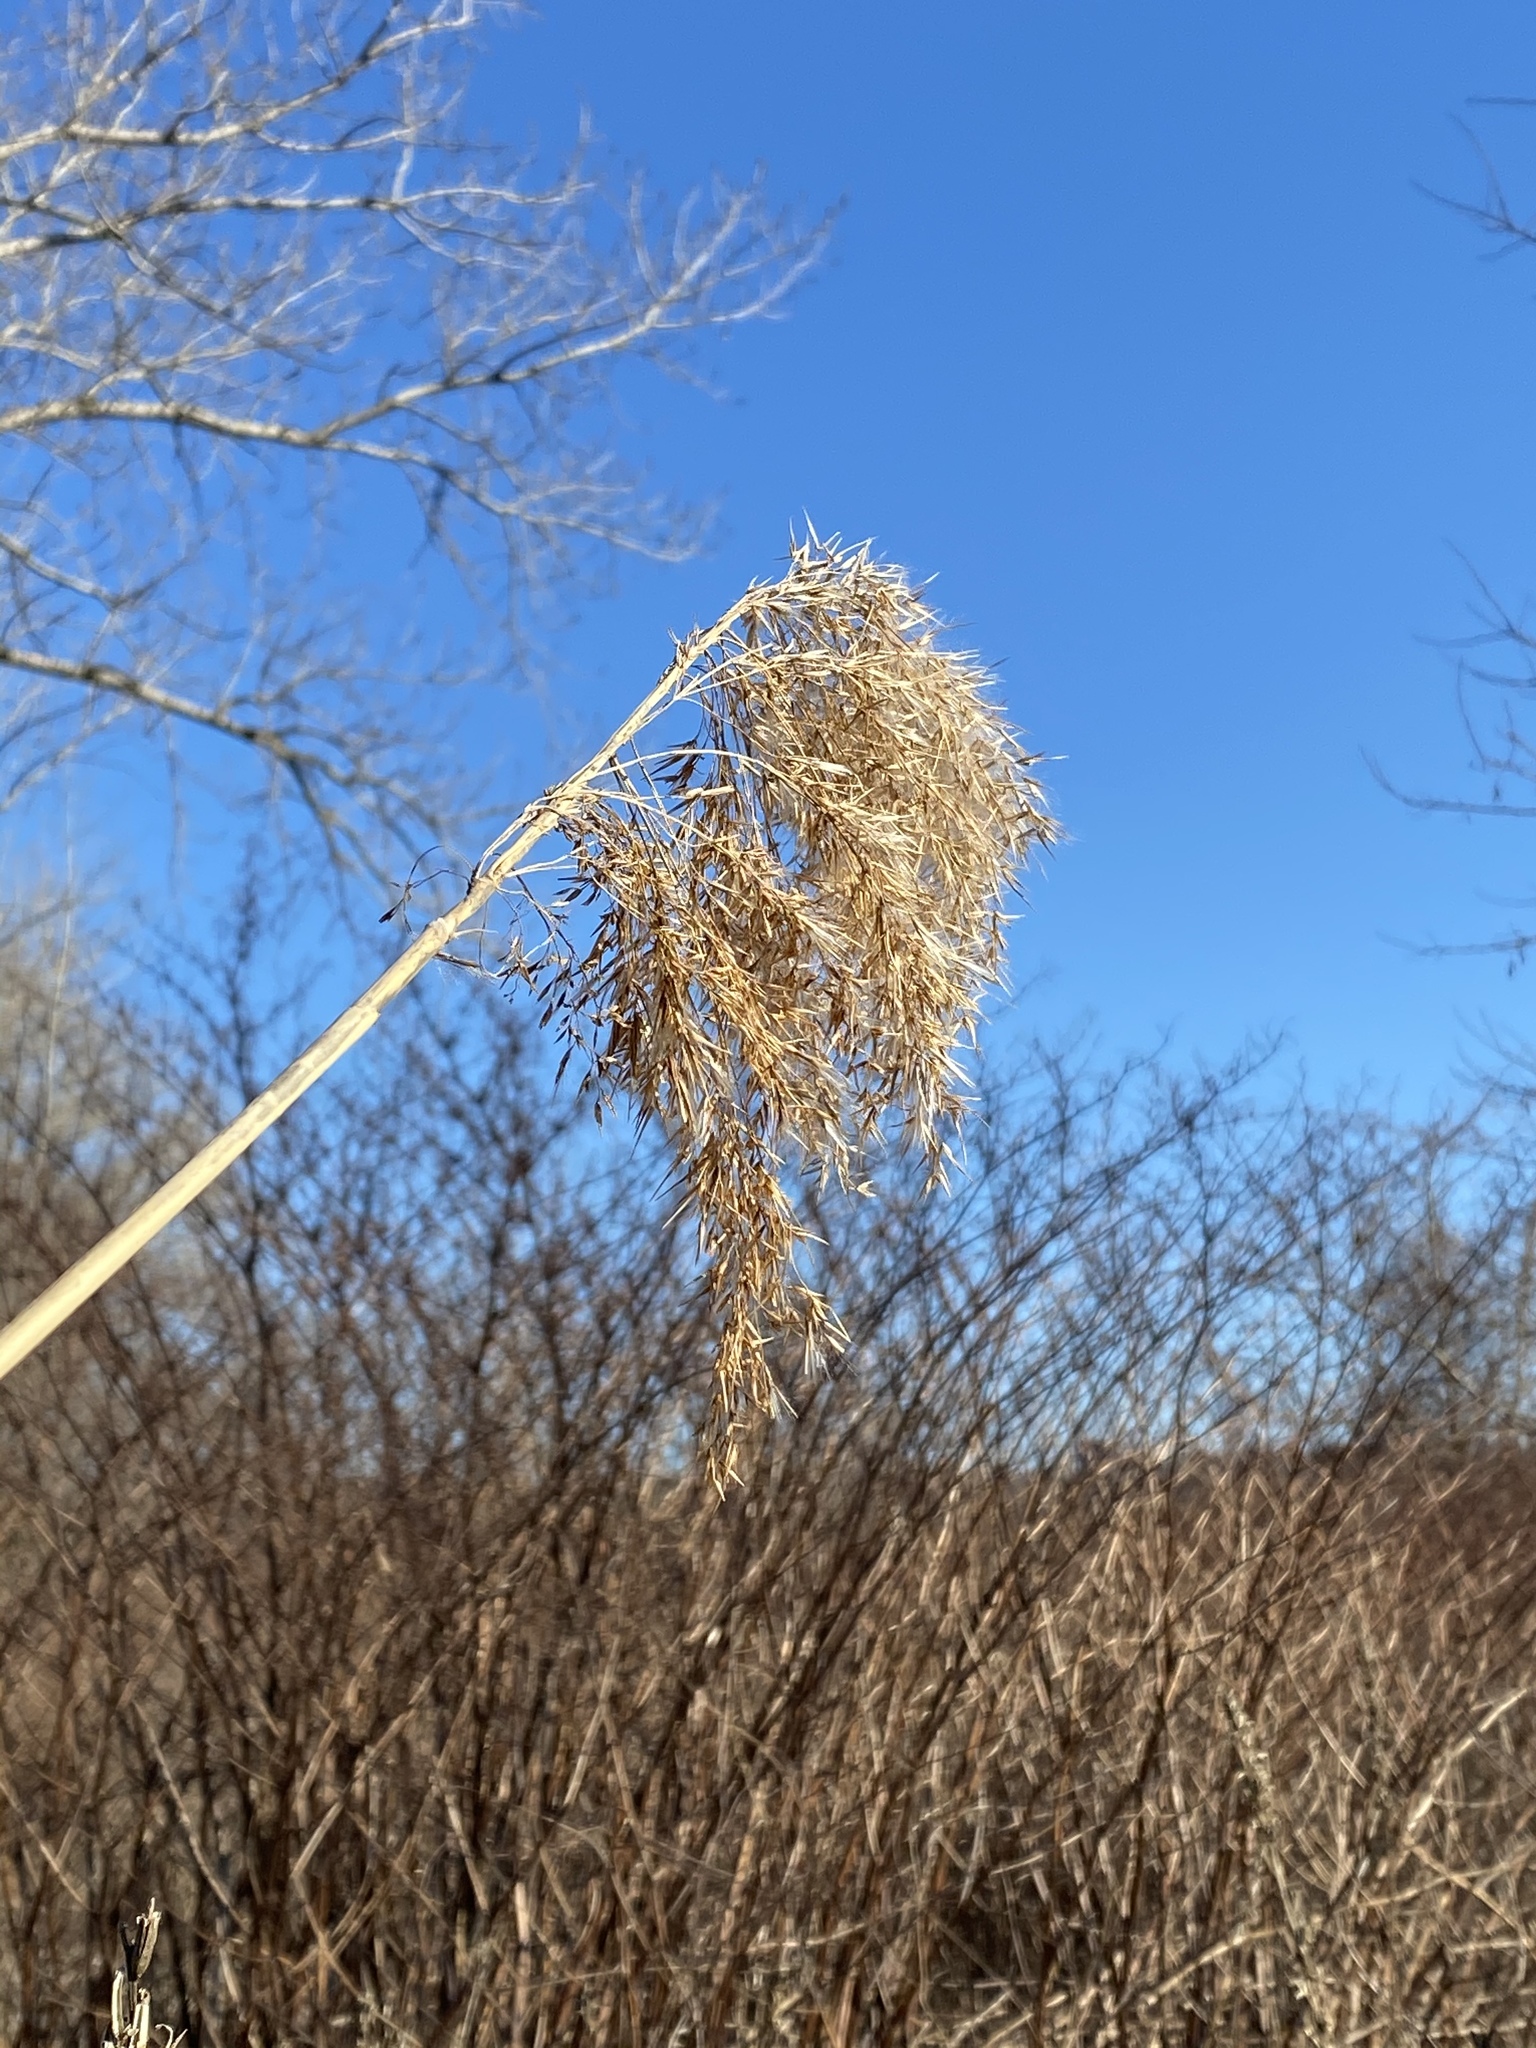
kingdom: Plantae
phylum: Tracheophyta
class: Liliopsida
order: Poales
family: Poaceae
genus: Phragmites
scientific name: Phragmites australis
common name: Common reed
